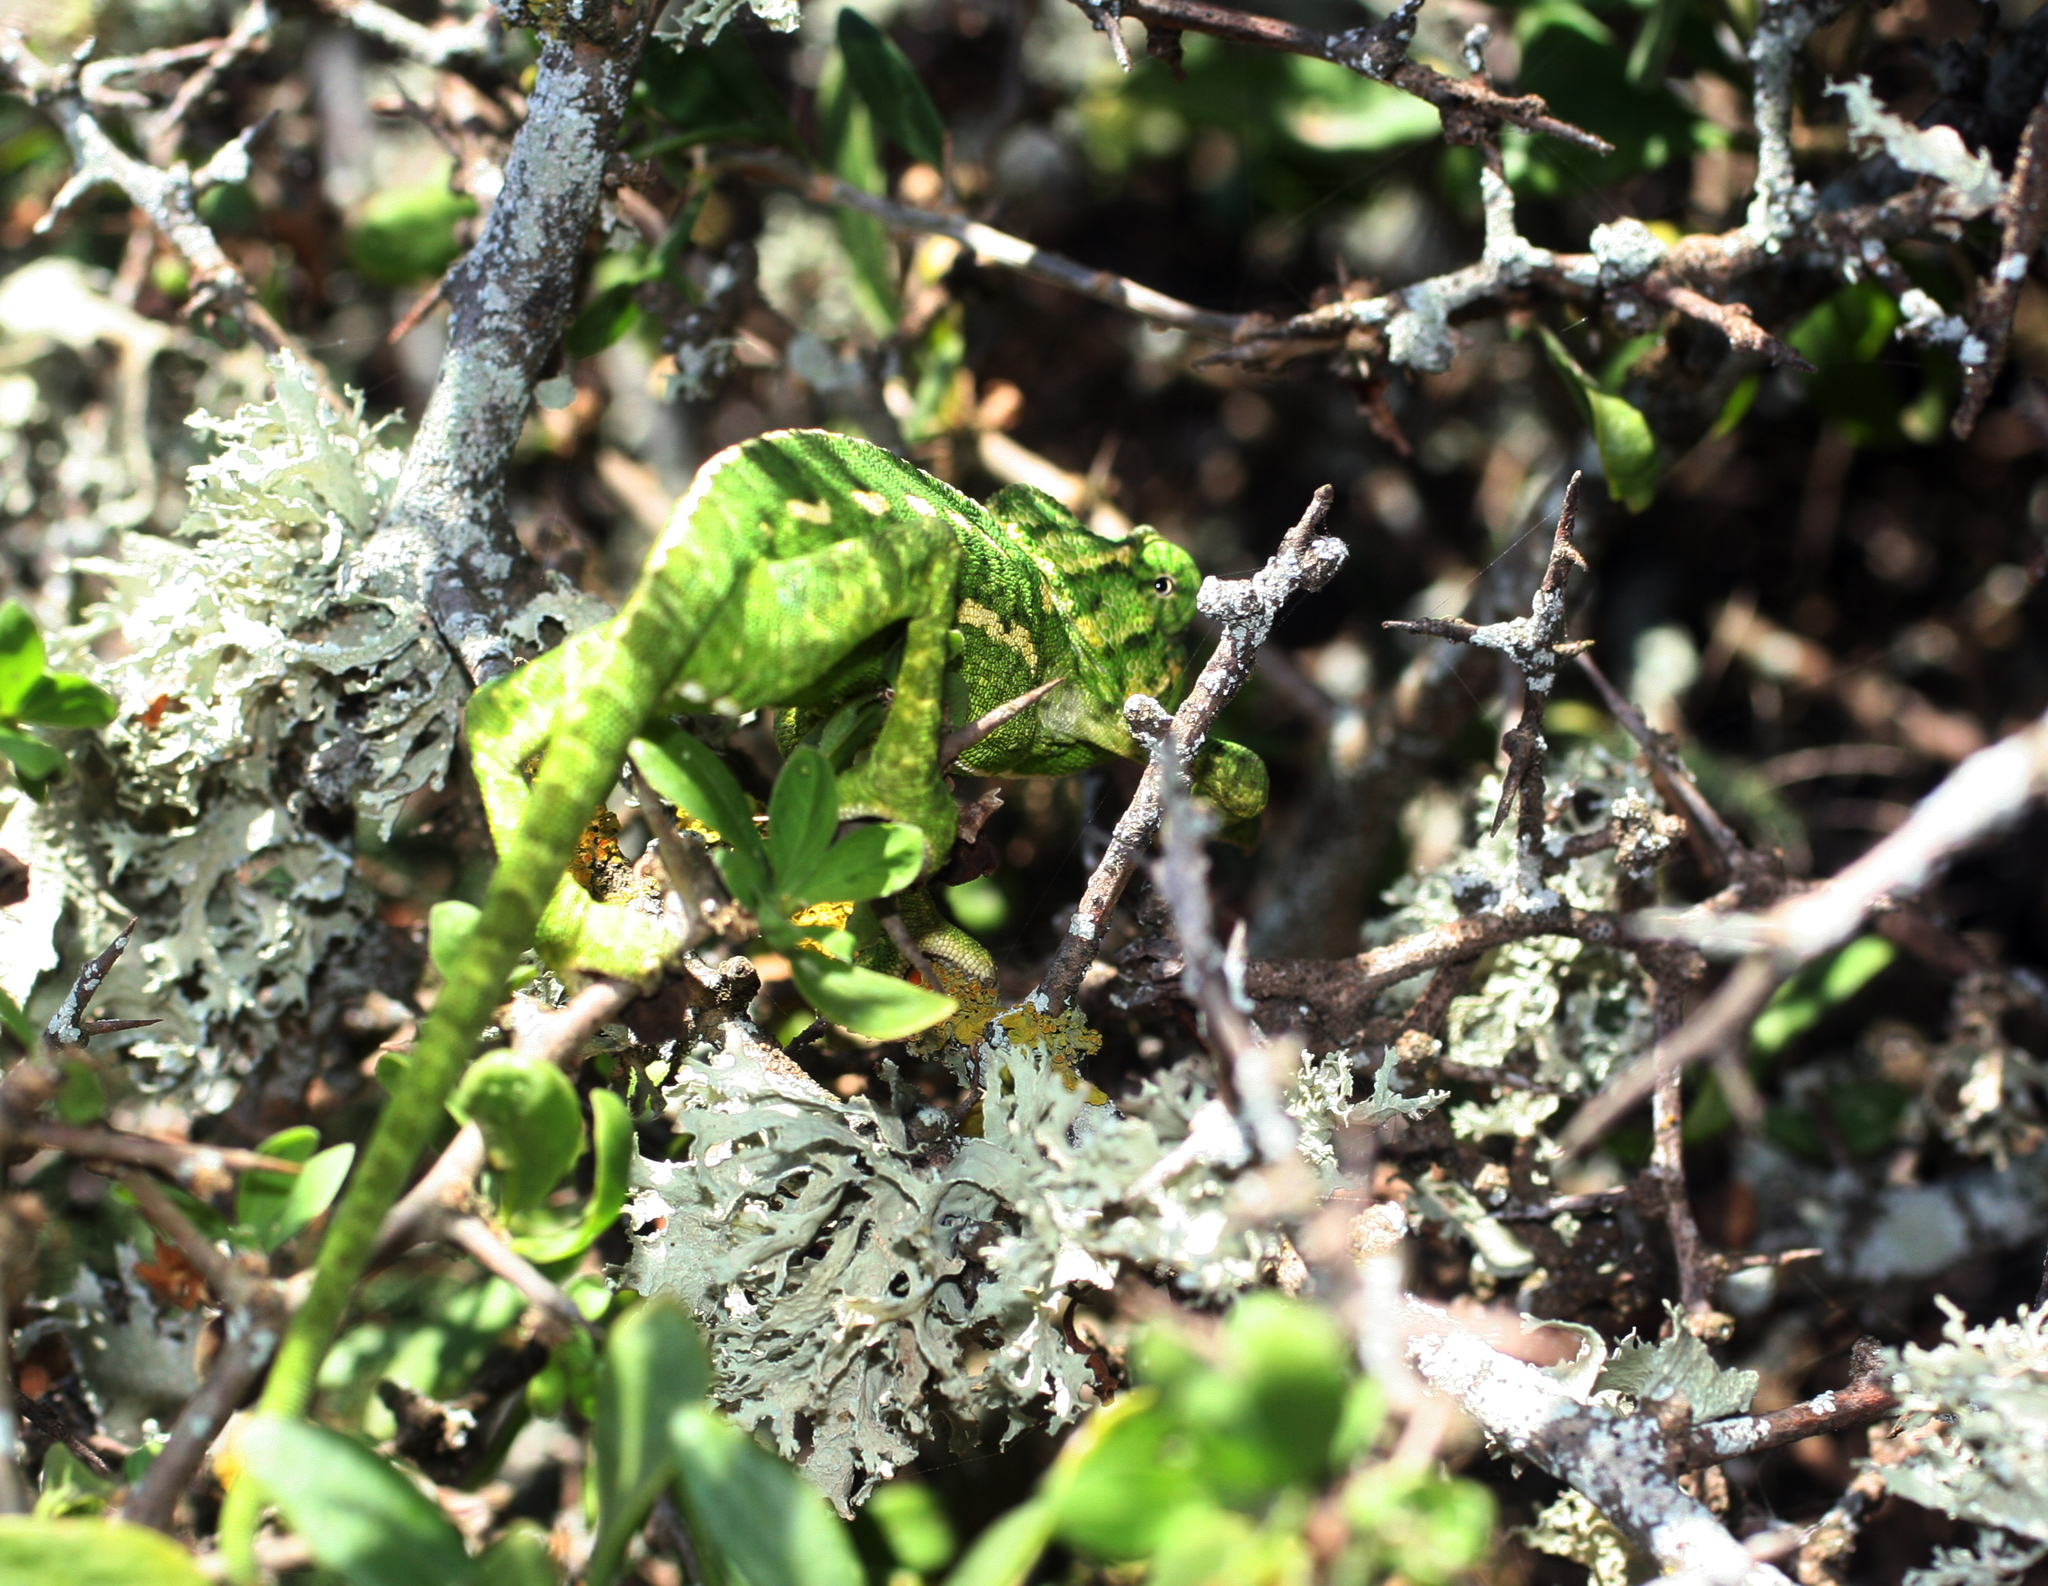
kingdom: Animalia
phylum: Chordata
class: Squamata
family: Chamaeleonidae
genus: Chamaeleo
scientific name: Chamaeleo chamaeleon
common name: Mediterranean chameleon
